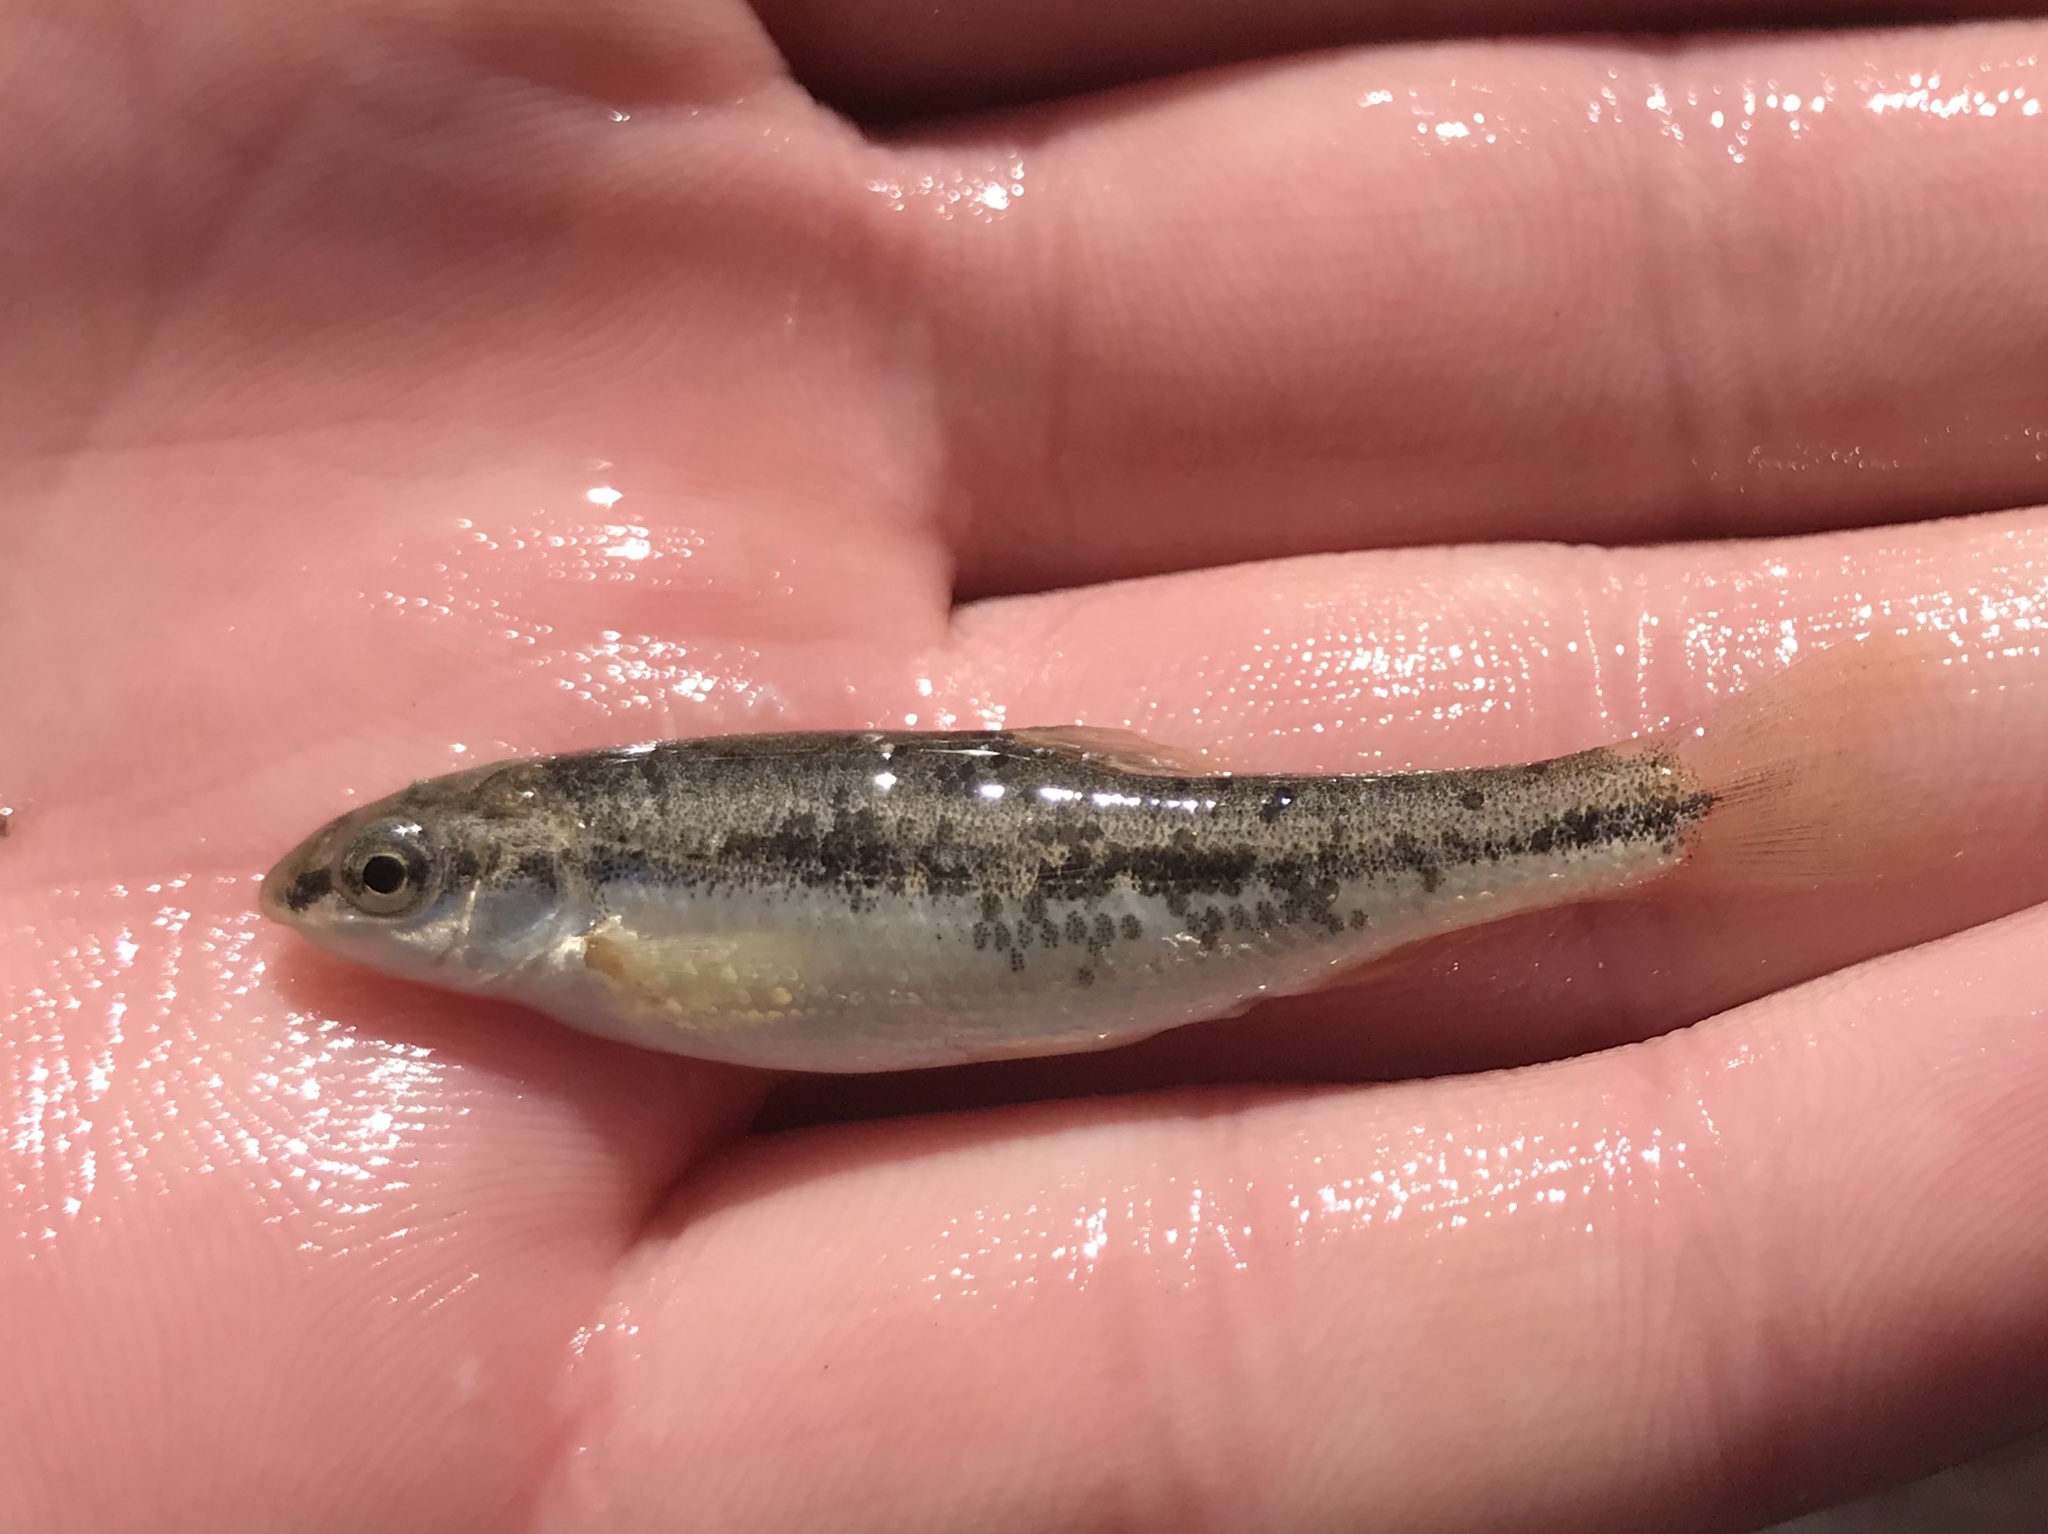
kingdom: Animalia
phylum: Chordata
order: Cypriniformes
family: Cyprinidae
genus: Campostoma
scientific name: Campostoma anomalum
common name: Central stoneroller
